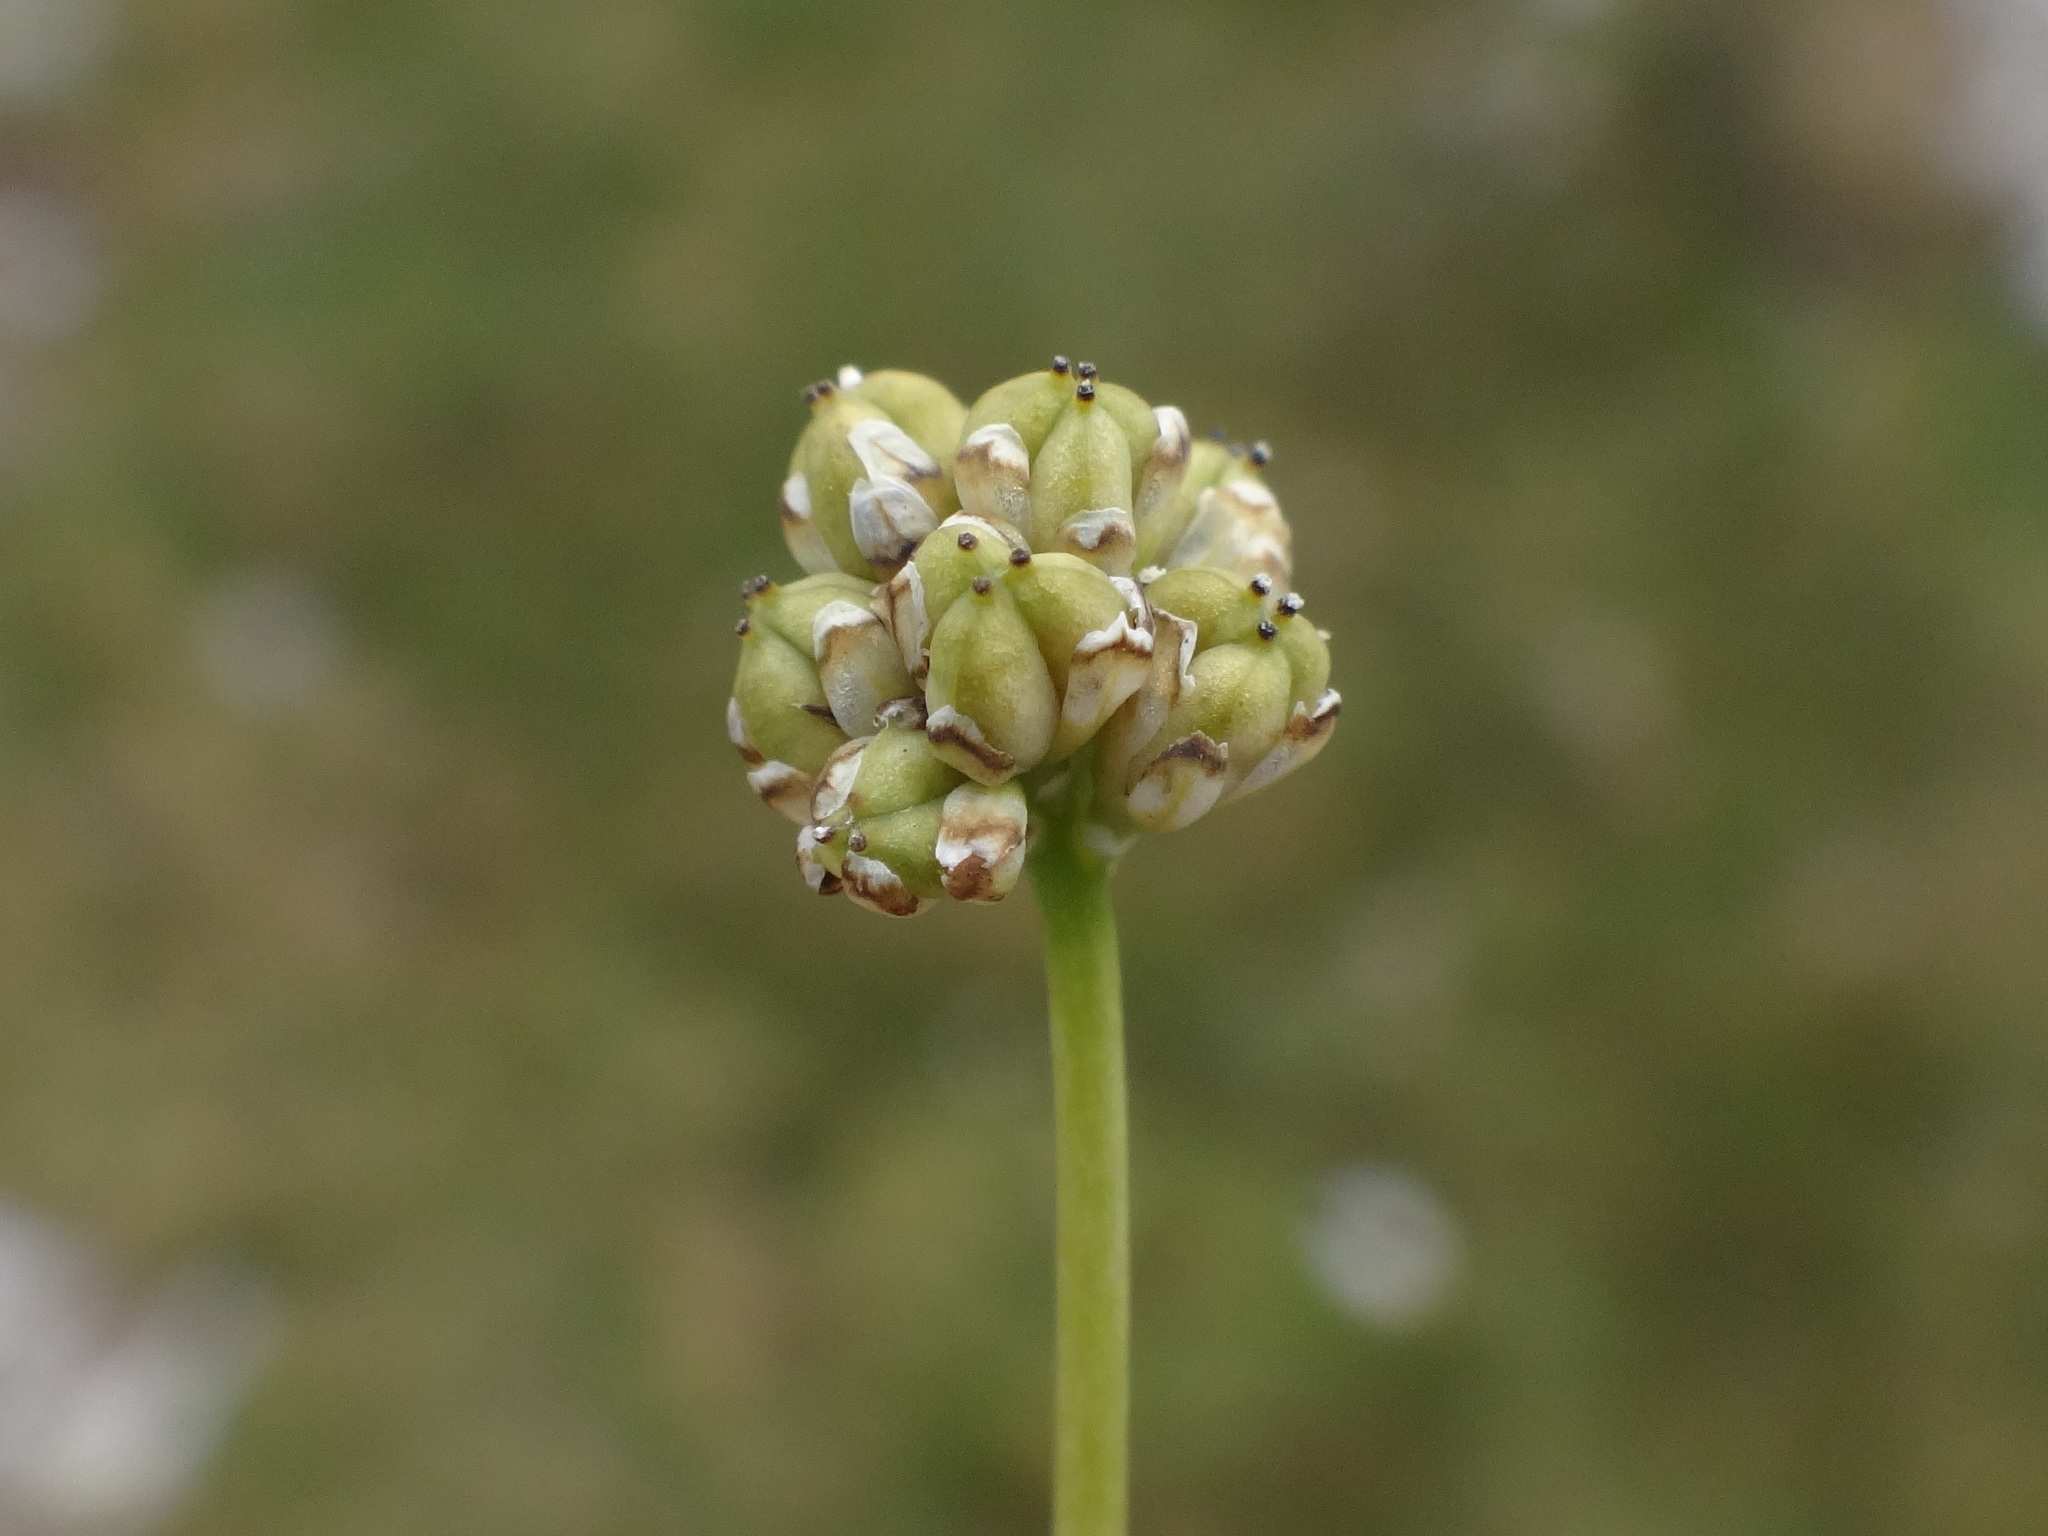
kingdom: Plantae
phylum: Tracheophyta
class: Liliopsida
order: Alismatales
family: Tofieldiaceae
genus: Tofieldia
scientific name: Tofieldia pusilla
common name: Scottish false asphodel
